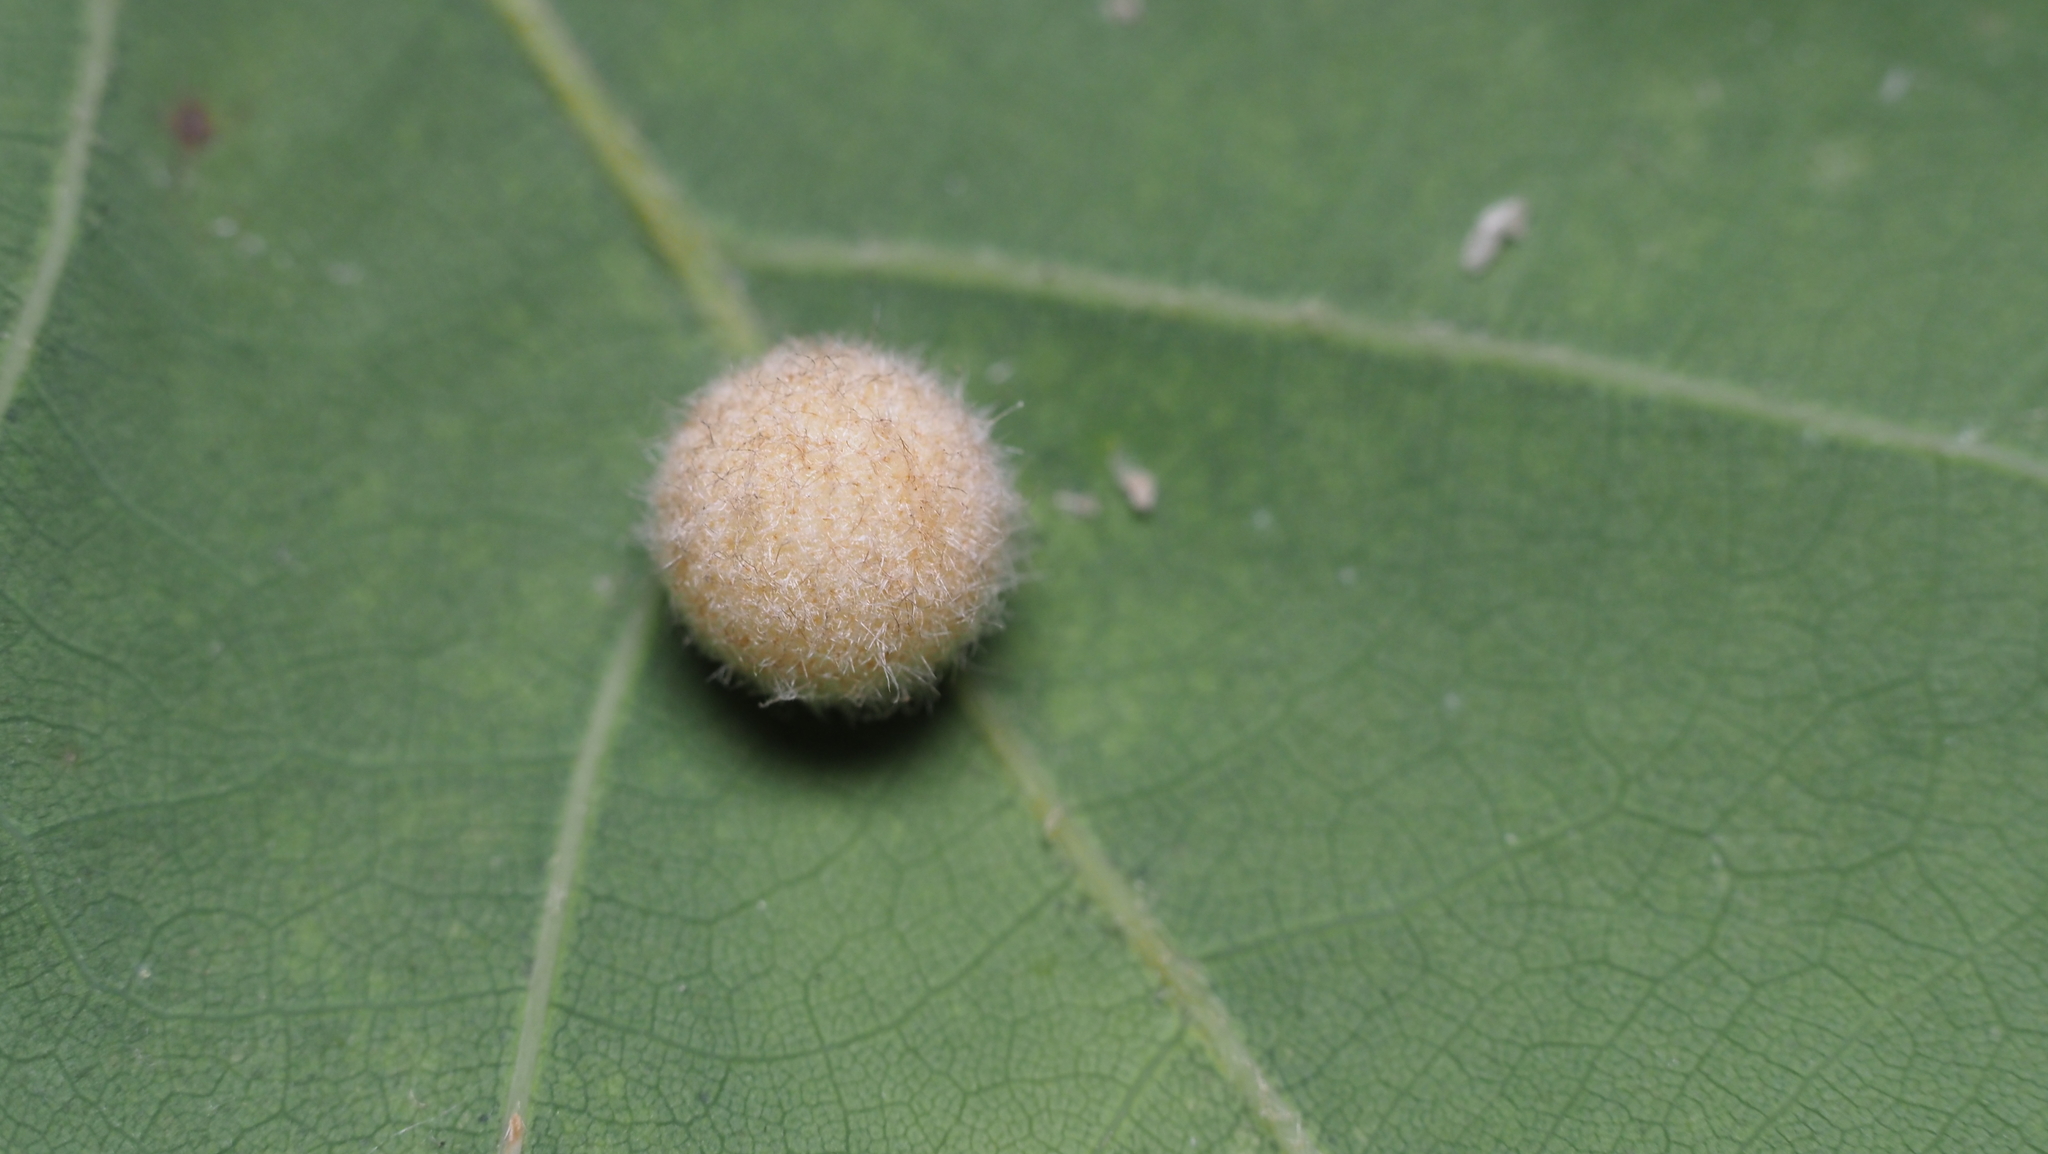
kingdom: Animalia
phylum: Arthropoda
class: Insecta
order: Hymenoptera
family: Cynipidae
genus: Philonix
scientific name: Philonix fulvicollis
